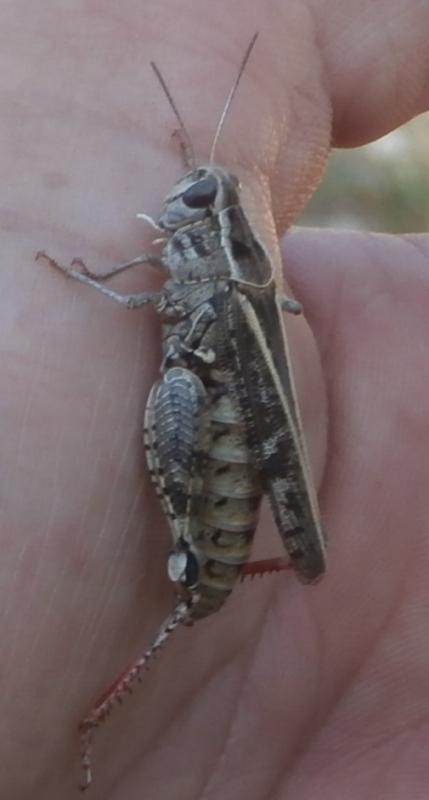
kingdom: Animalia
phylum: Arthropoda
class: Insecta
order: Orthoptera
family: Acrididae
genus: Calliptamus
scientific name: Calliptamus italicus
